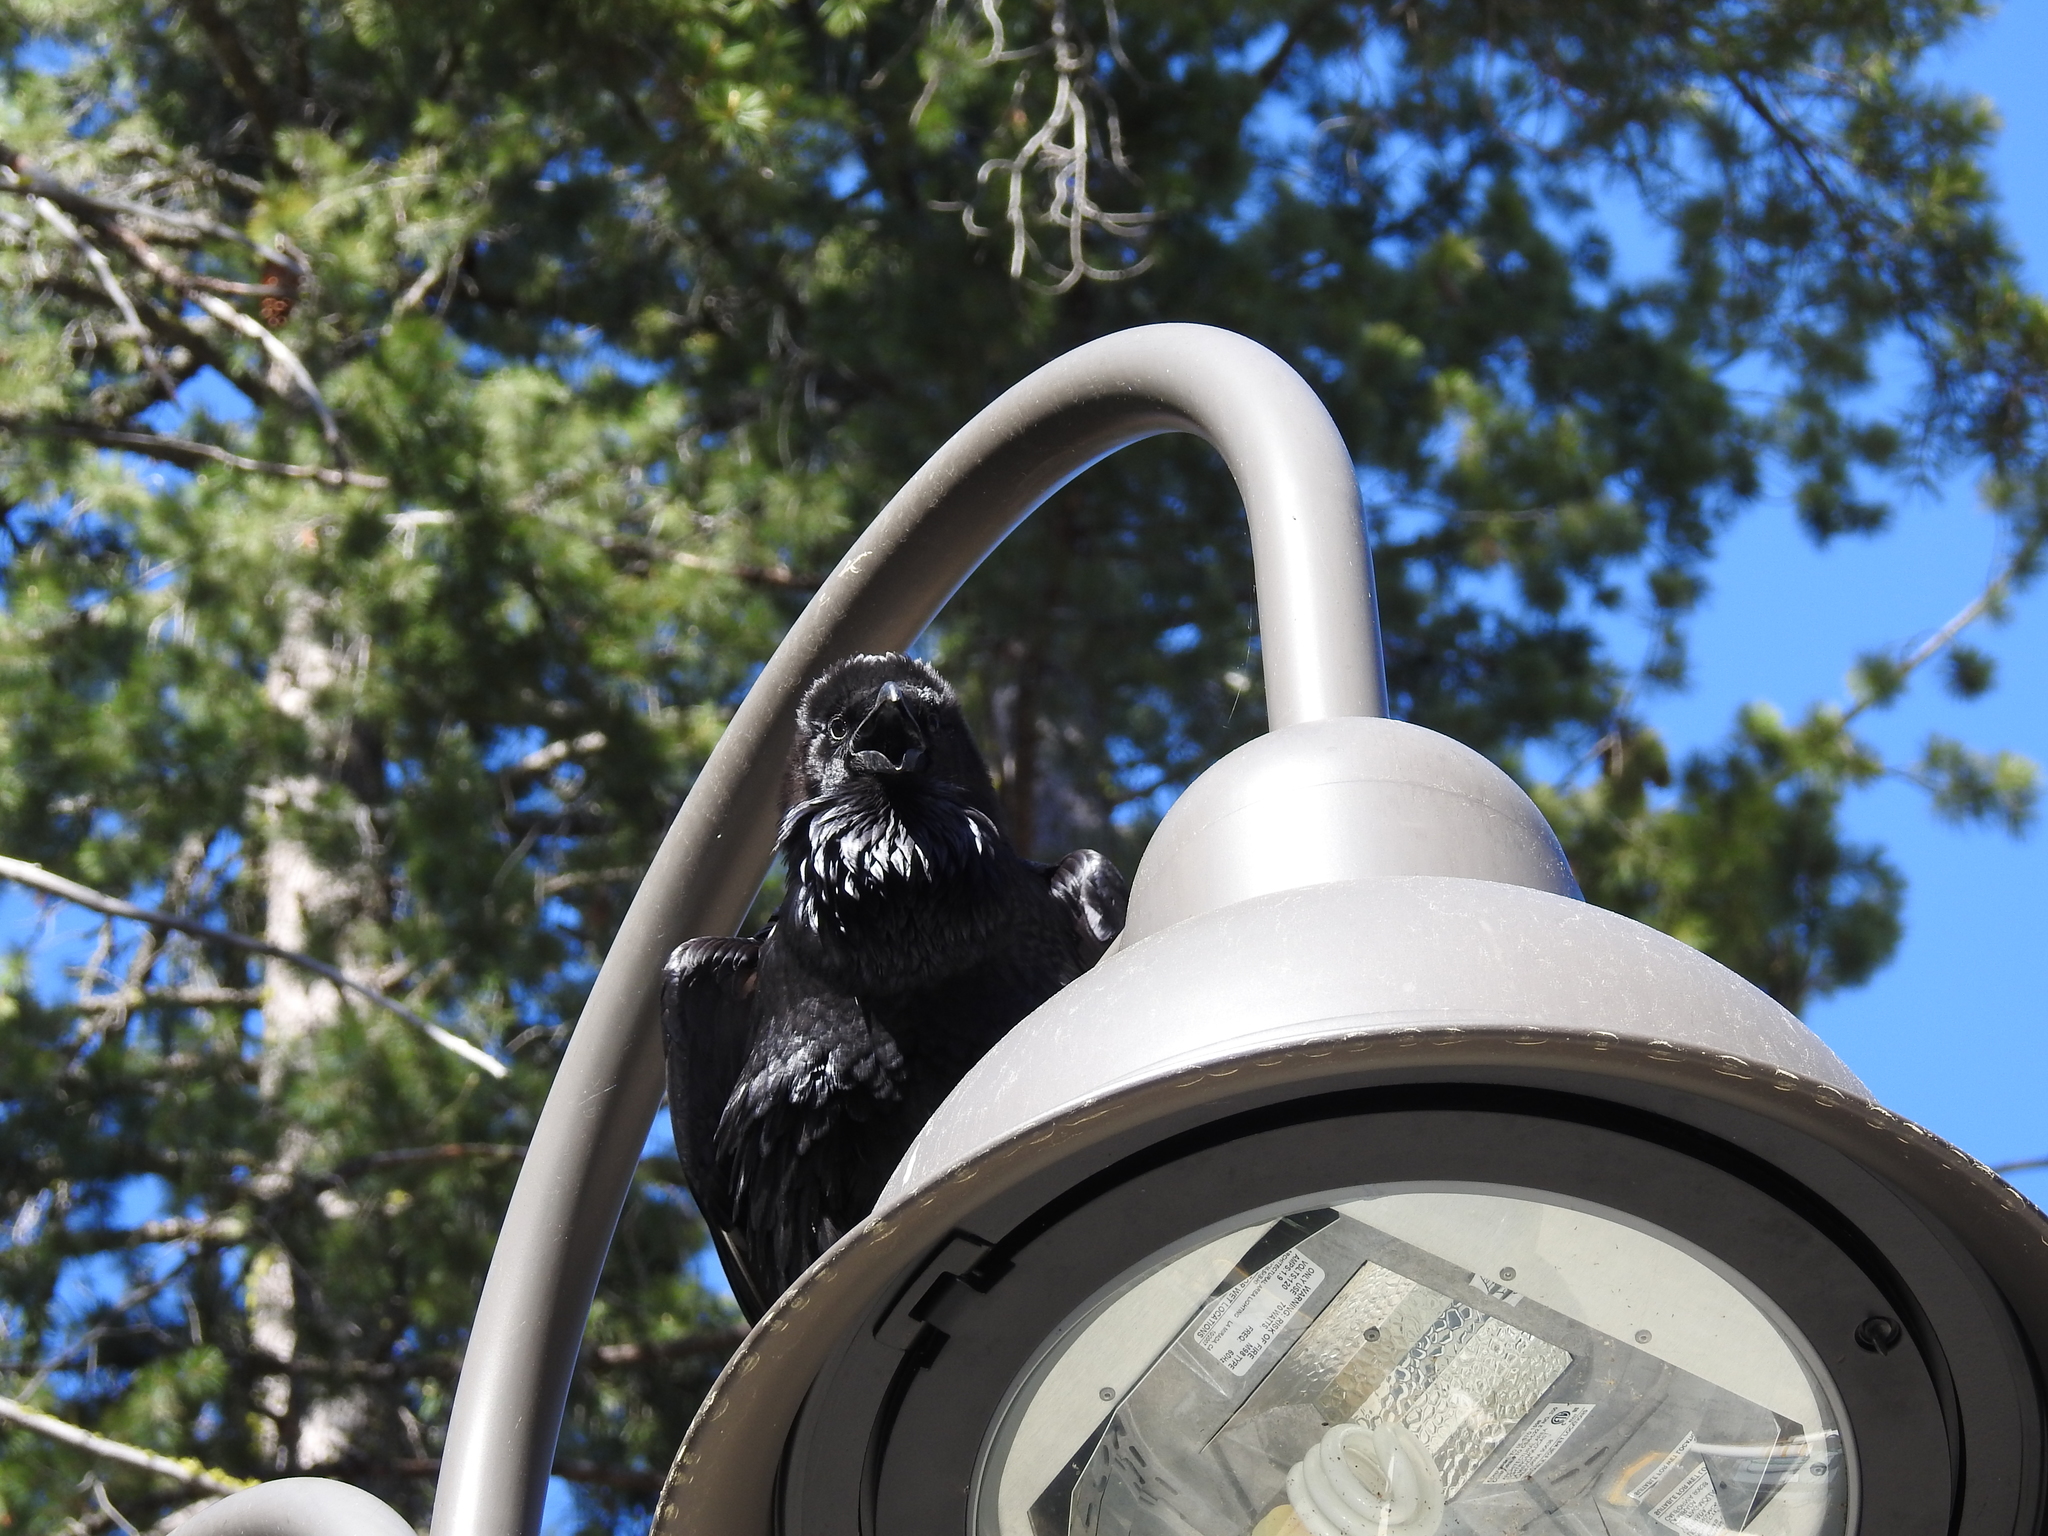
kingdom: Animalia
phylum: Chordata
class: Aves
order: Passeriformes
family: Corvidae
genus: Corvus
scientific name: Corvus corax
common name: Common raven
